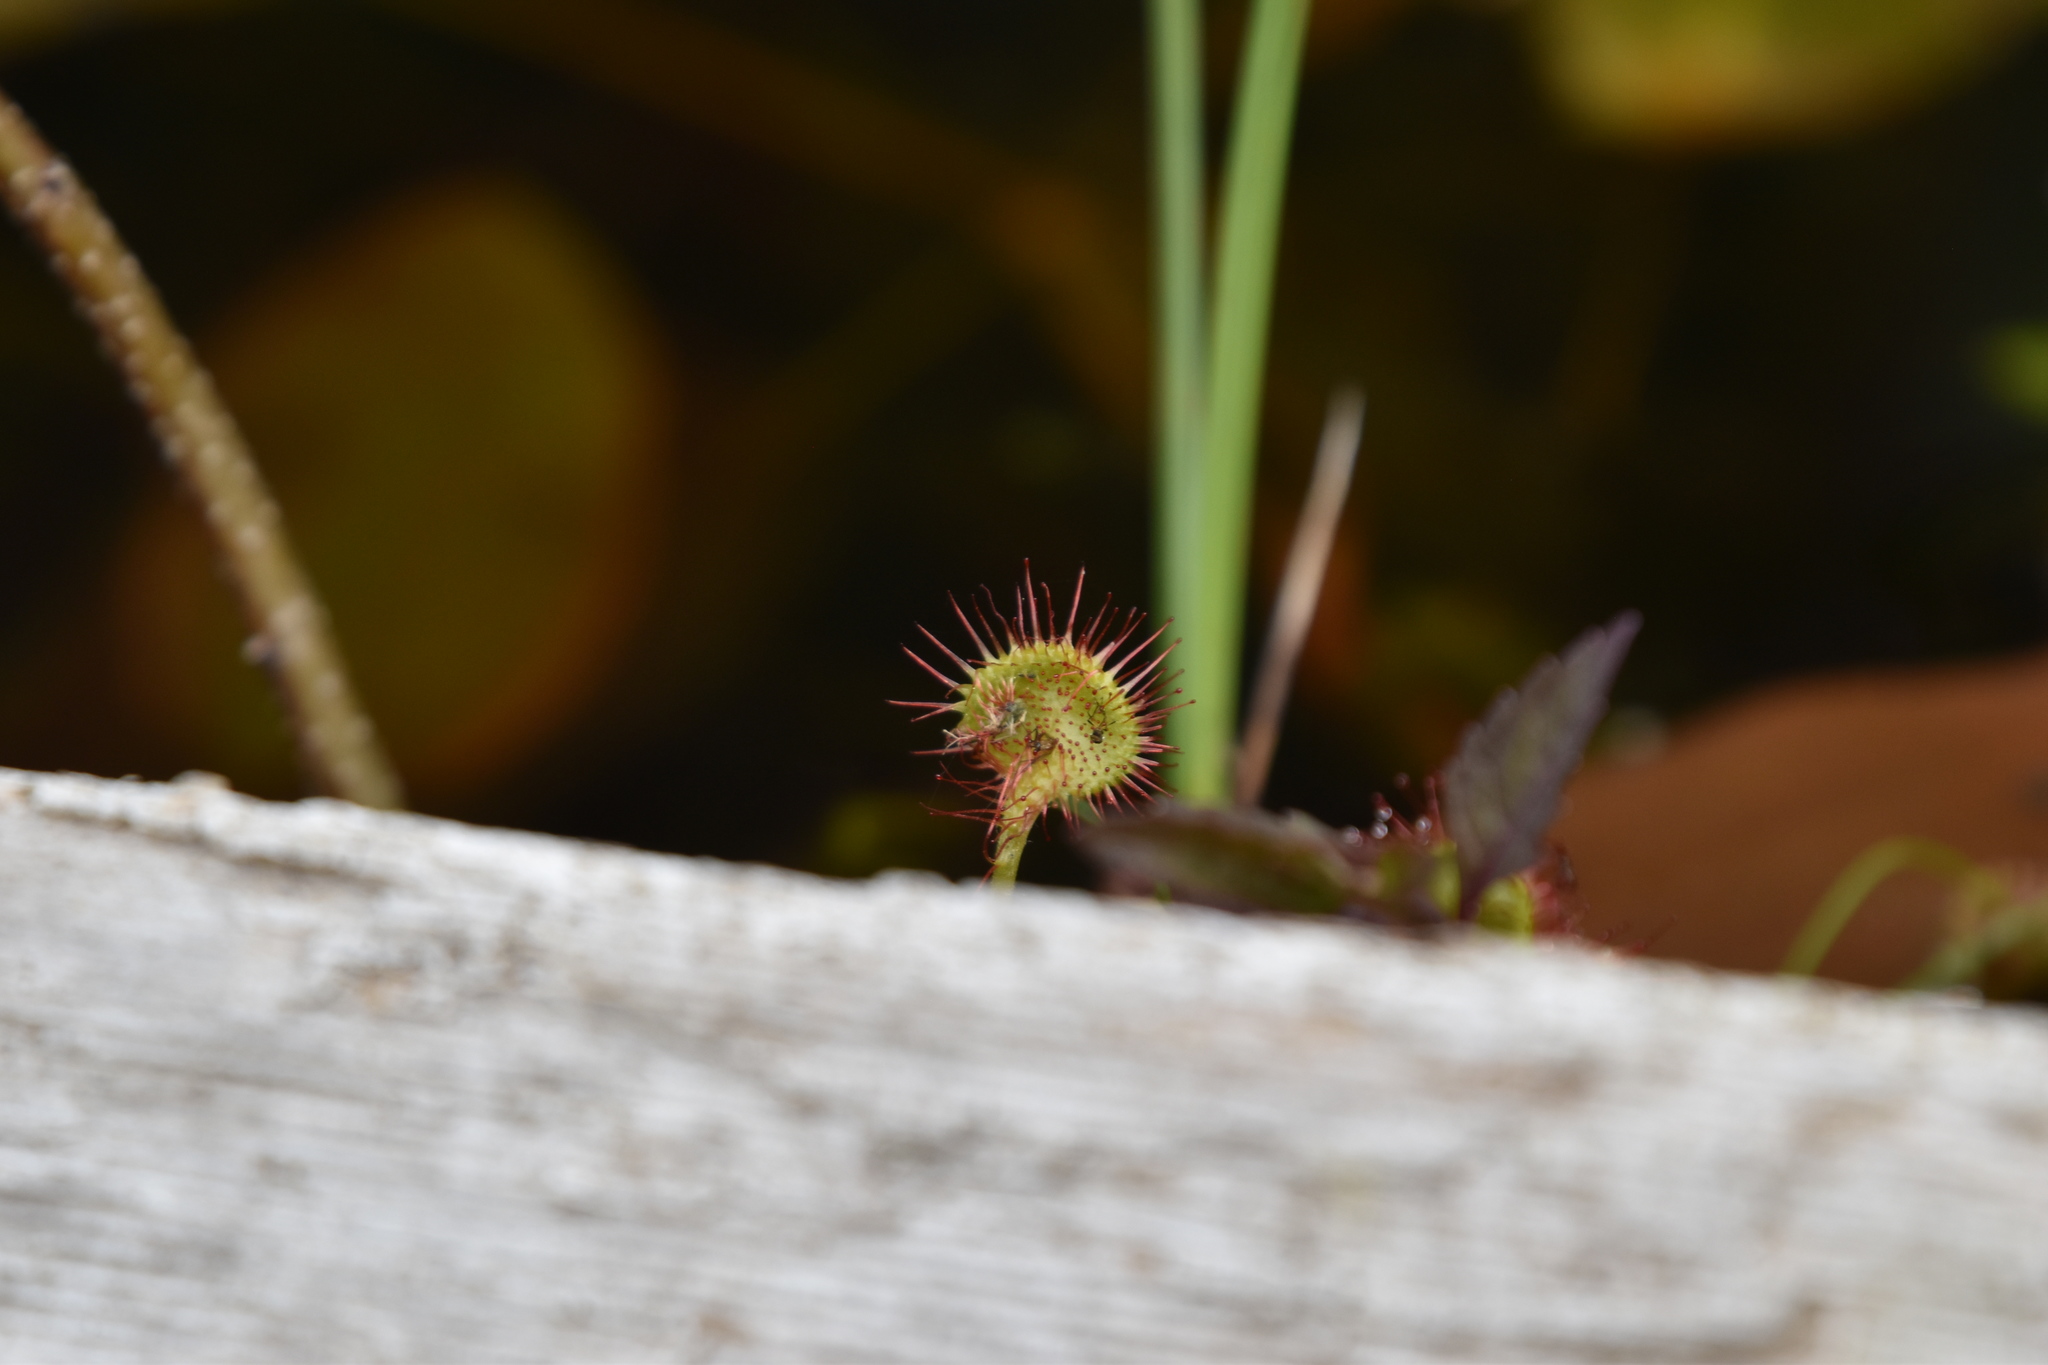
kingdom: Plantae
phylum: Tracheophyta
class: Magnoliopsida
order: Caryophyllales
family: Droseraceae
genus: Drosera
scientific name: Drosera rotundifolia
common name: Round-leaved sundew
